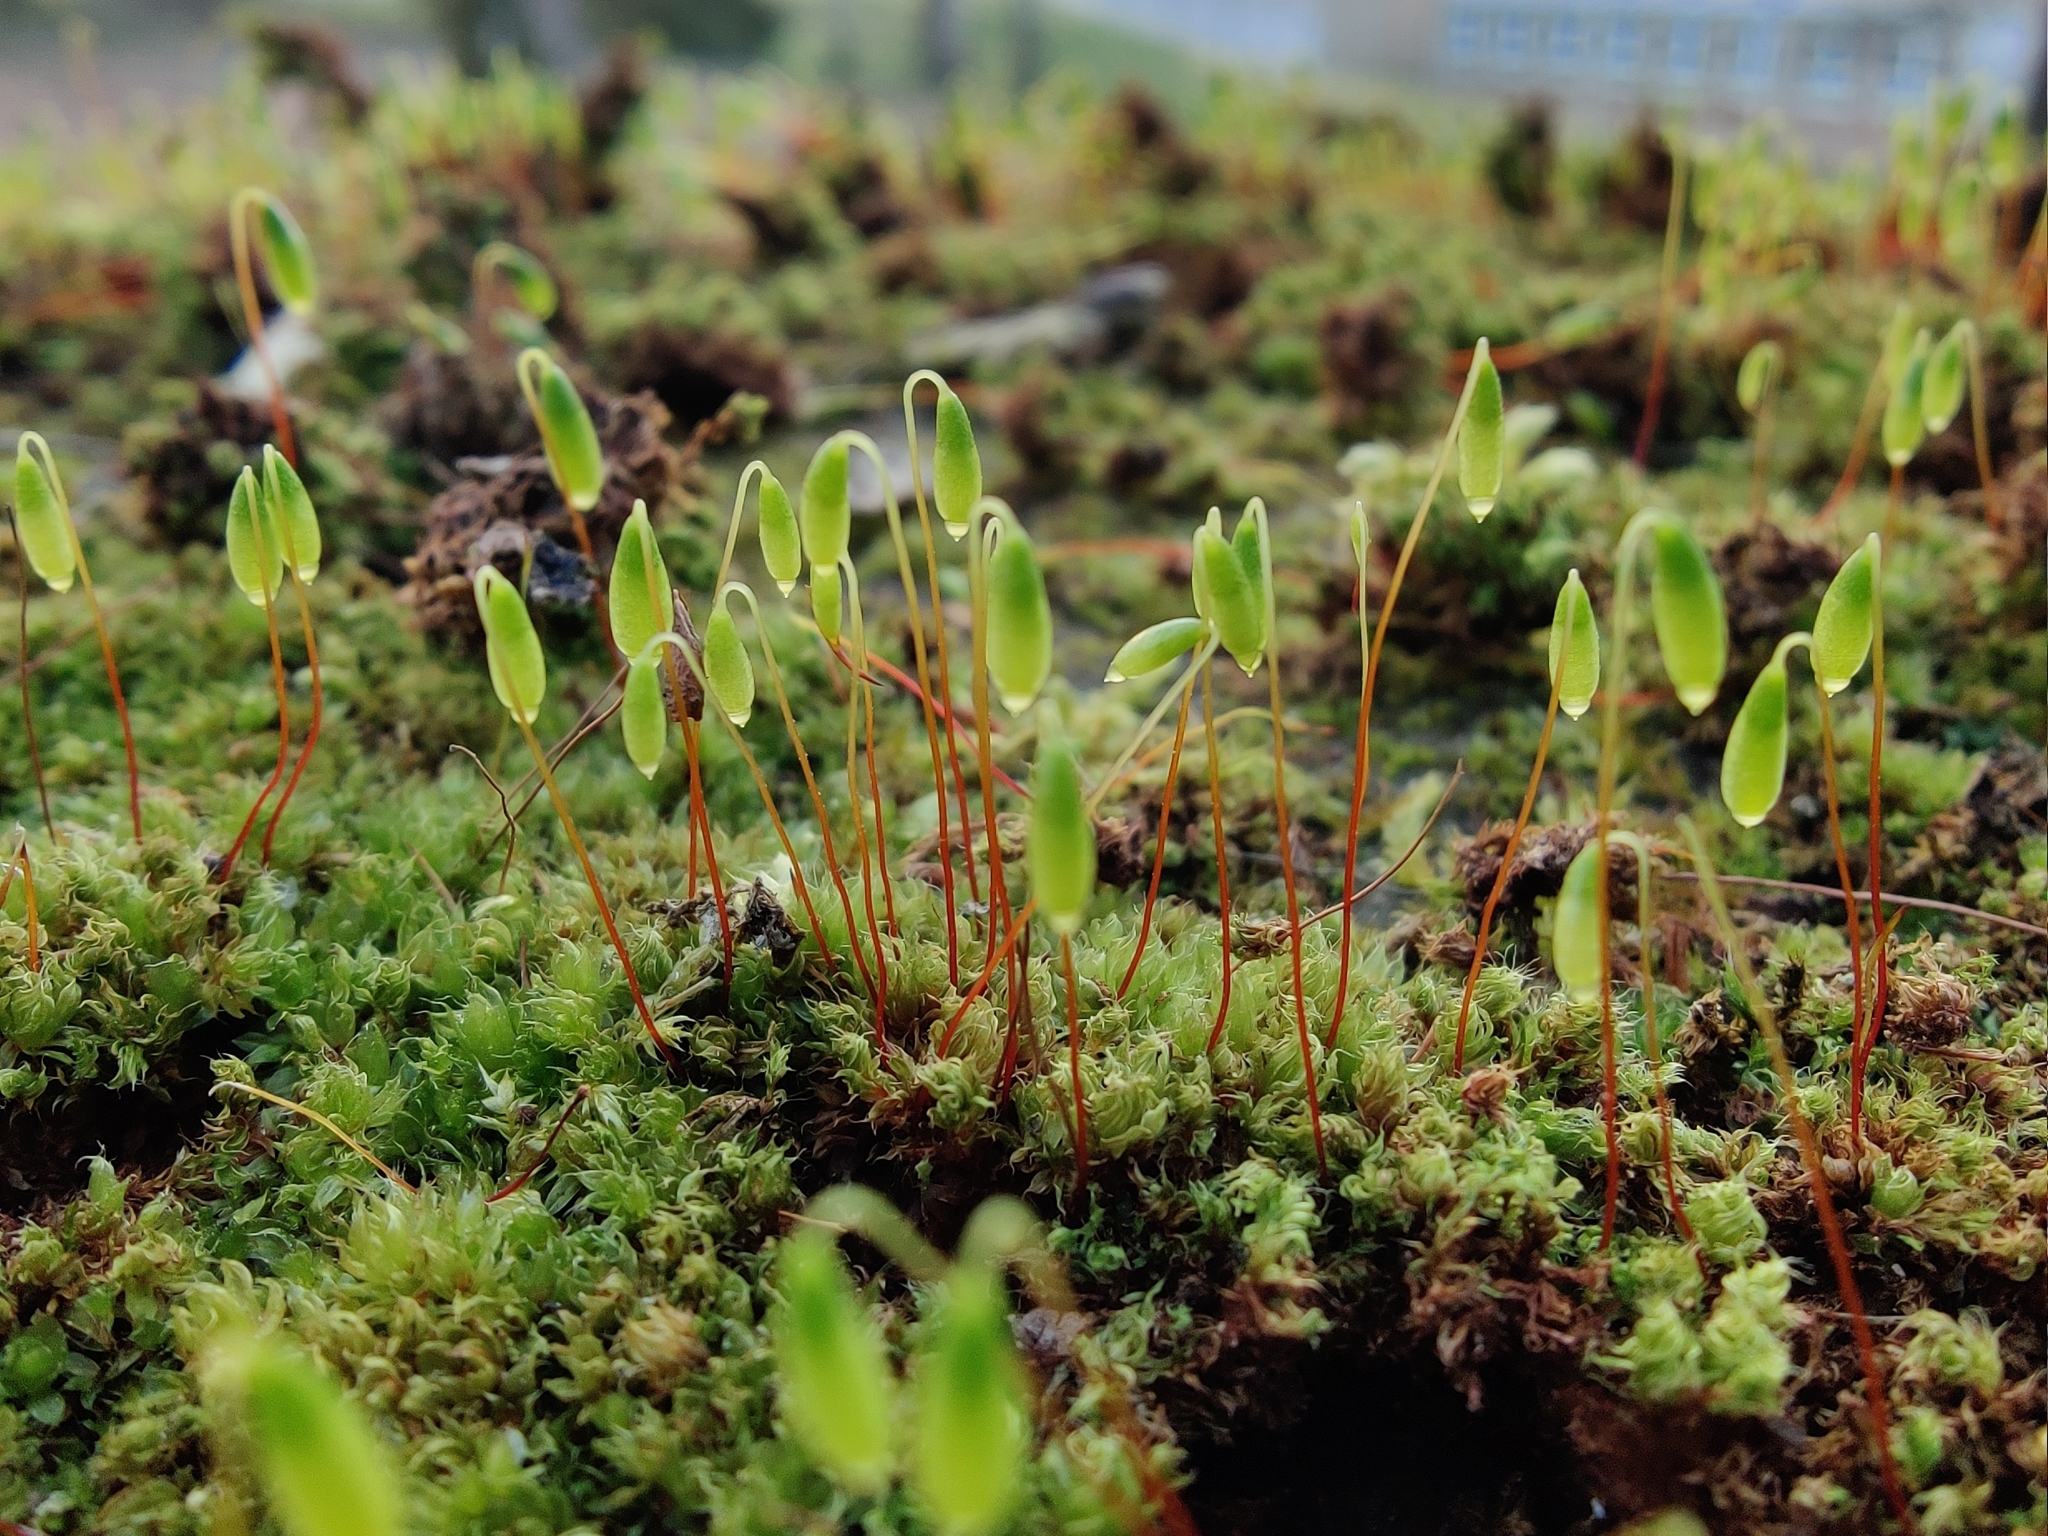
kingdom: Plantae
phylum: Bryophyta
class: Bryopsida
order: Bryales
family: Bryaceae
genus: Rosulabryum
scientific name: Rosulabryum capillare
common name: Capillary thread-moss
